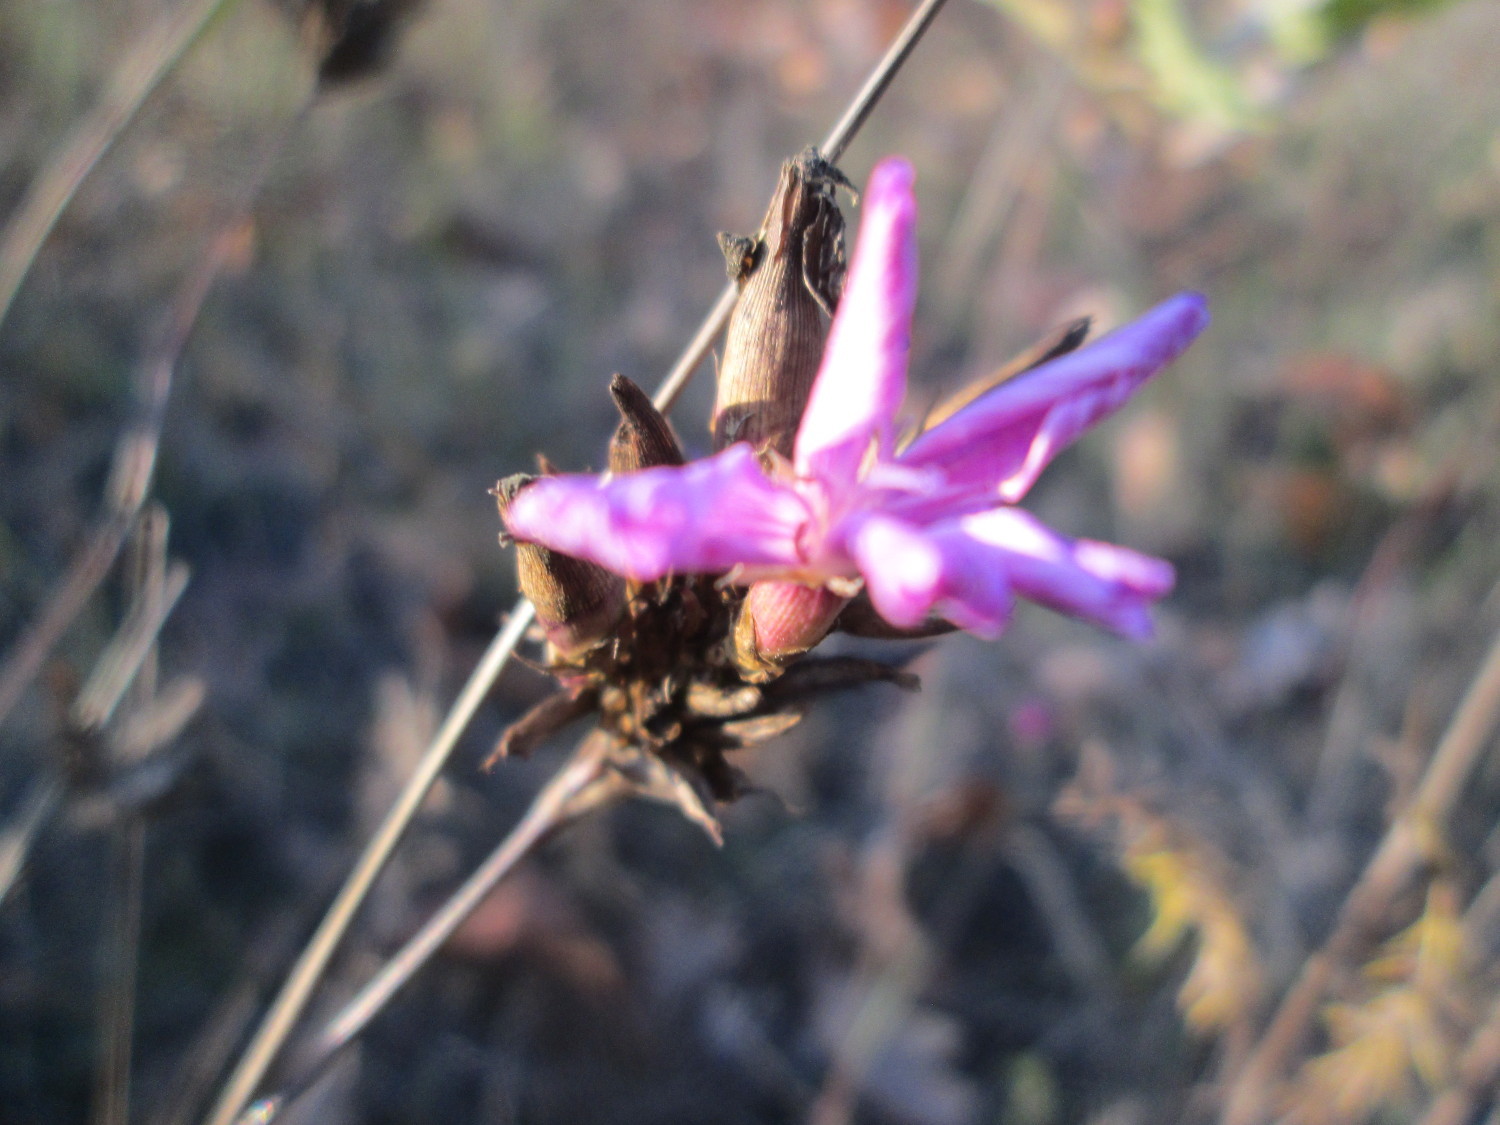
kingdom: Plantae
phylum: Tracheophyta
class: Magnoliopsida
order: Caryophyllales
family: Caryophyllaceae
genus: Dianthus
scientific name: Dianthus carthusianorum
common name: Carthusian pink
